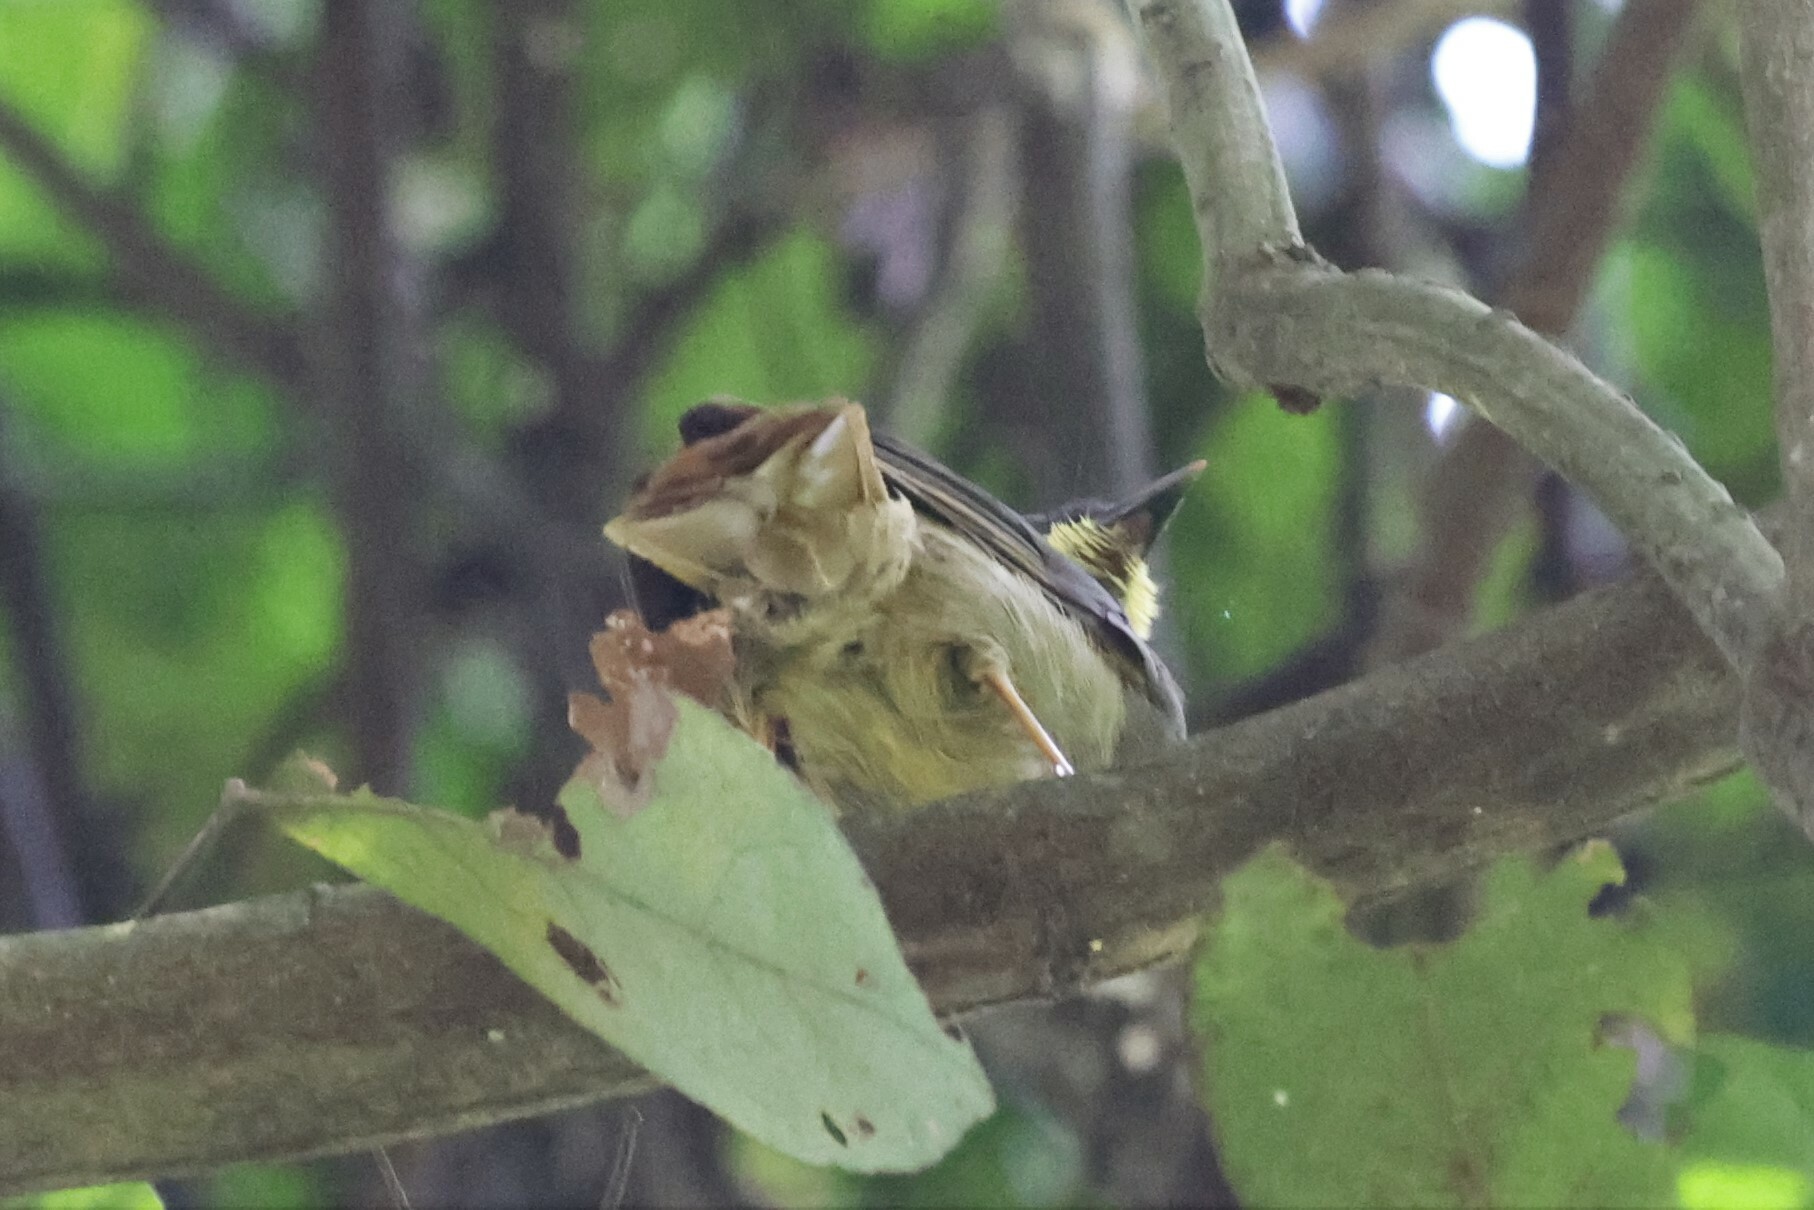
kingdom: Animalia
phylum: Chordata
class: Aves
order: Passeriformes
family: Pycnonotidae
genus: Eurillas
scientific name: Eurillas latirostris
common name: Yellow-whiskered greenbul
